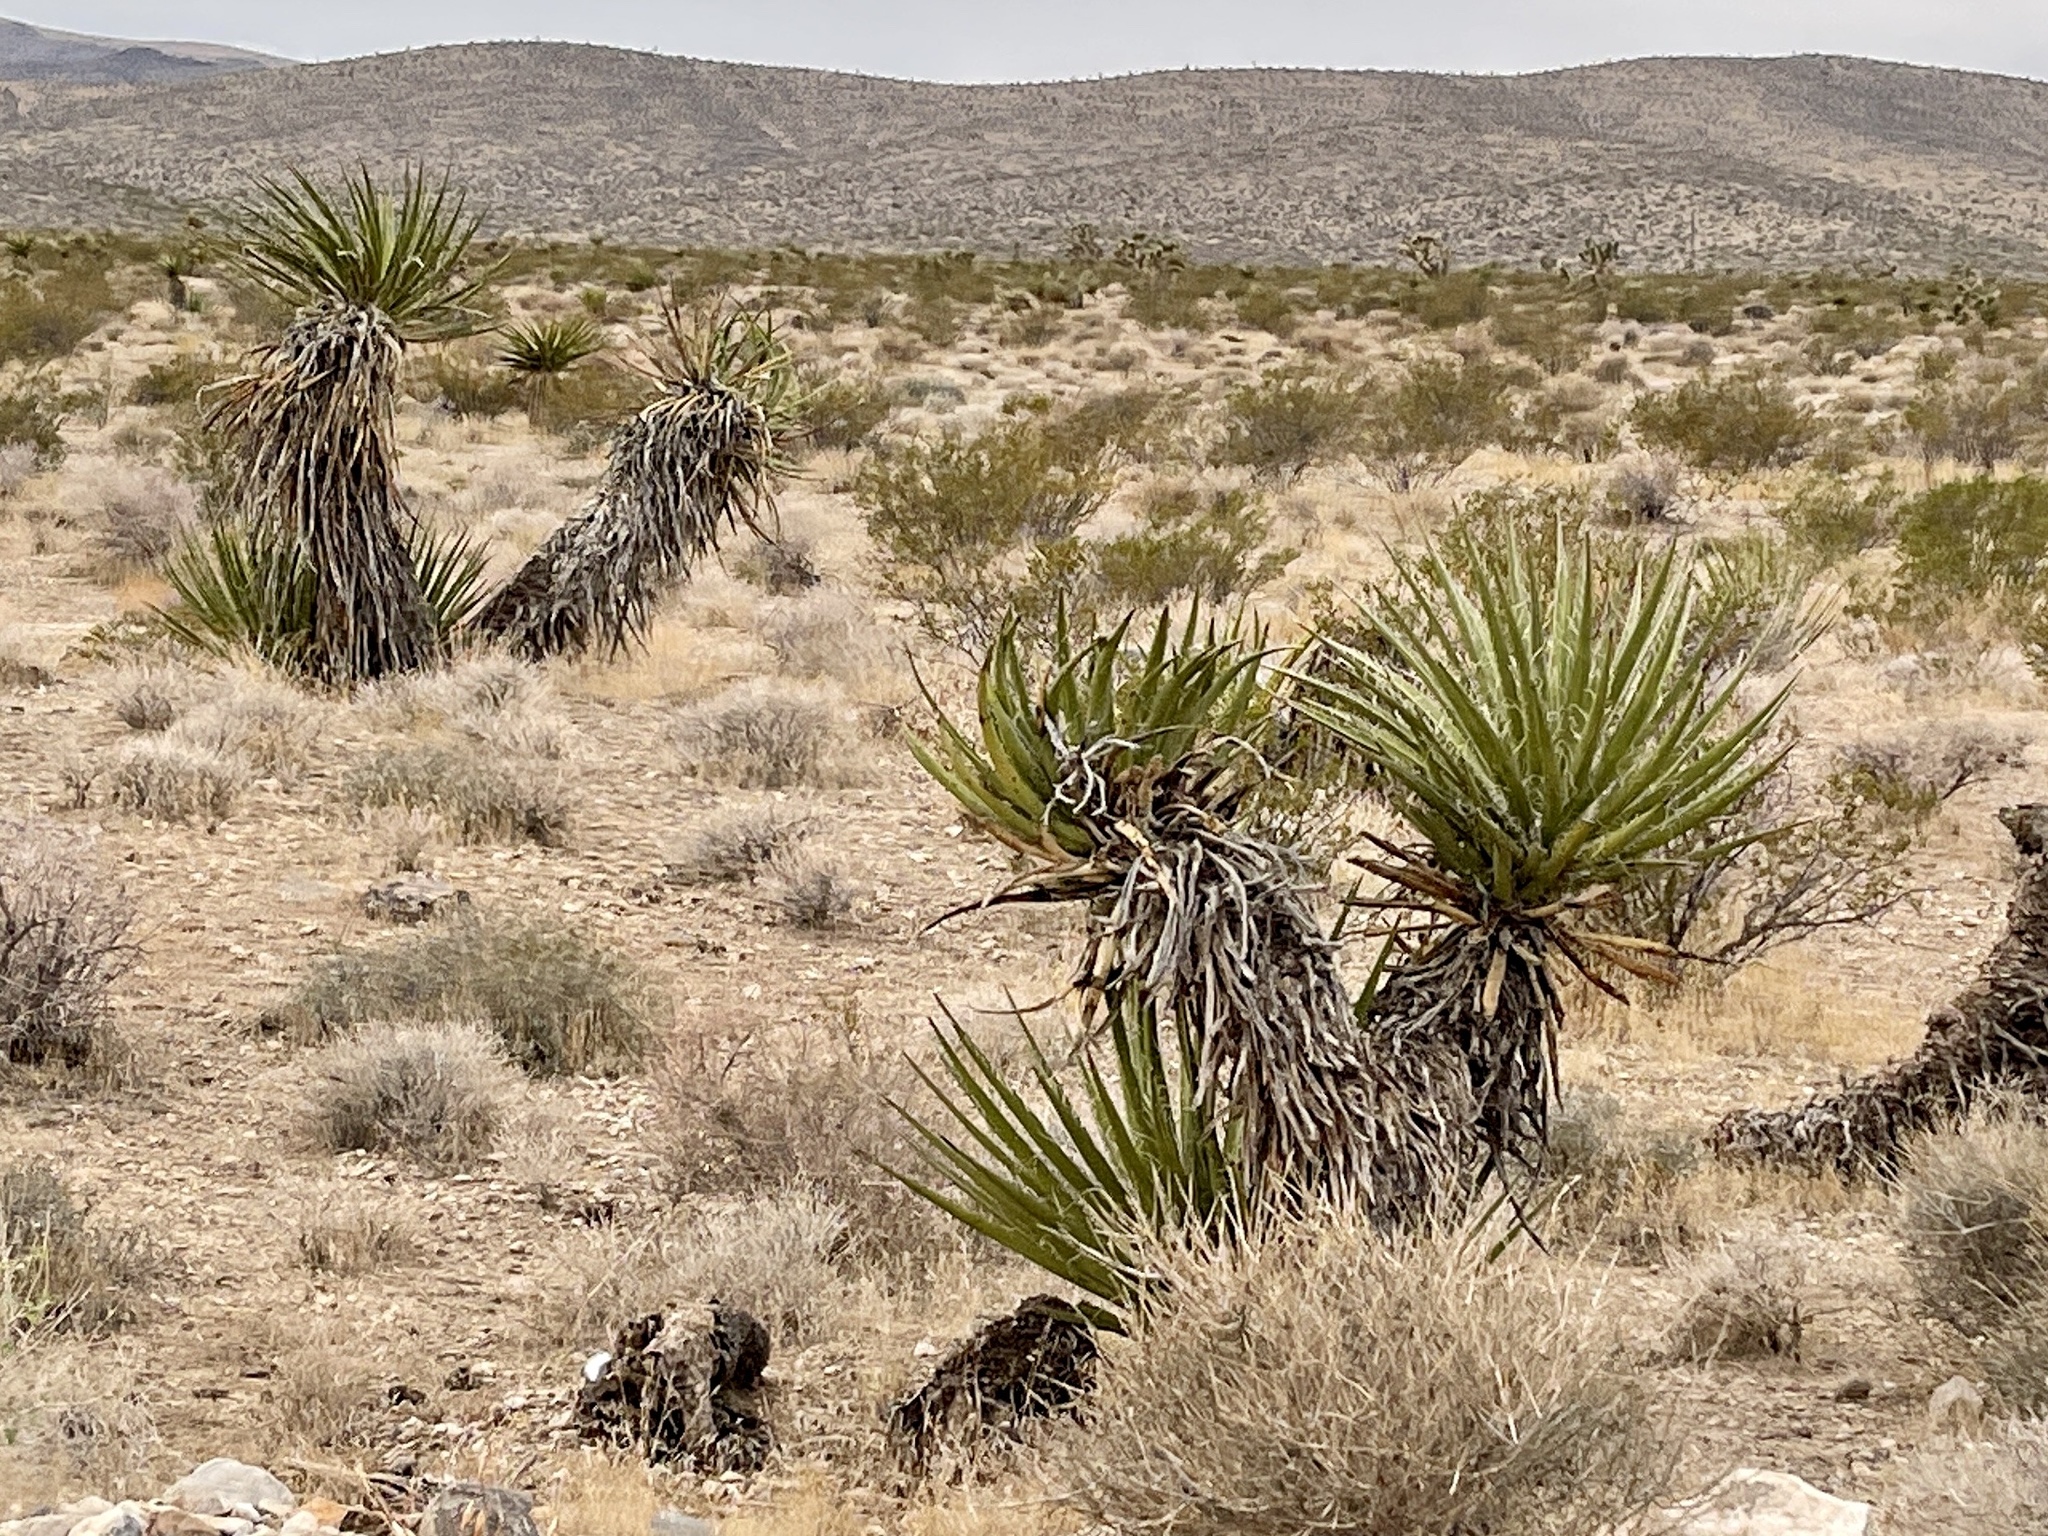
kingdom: Plantae
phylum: Tracheophyta
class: Liliopsida
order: Asparagales
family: Asparagaceae
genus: Yucca
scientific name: Yucca schidigera
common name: Mojave yucca
